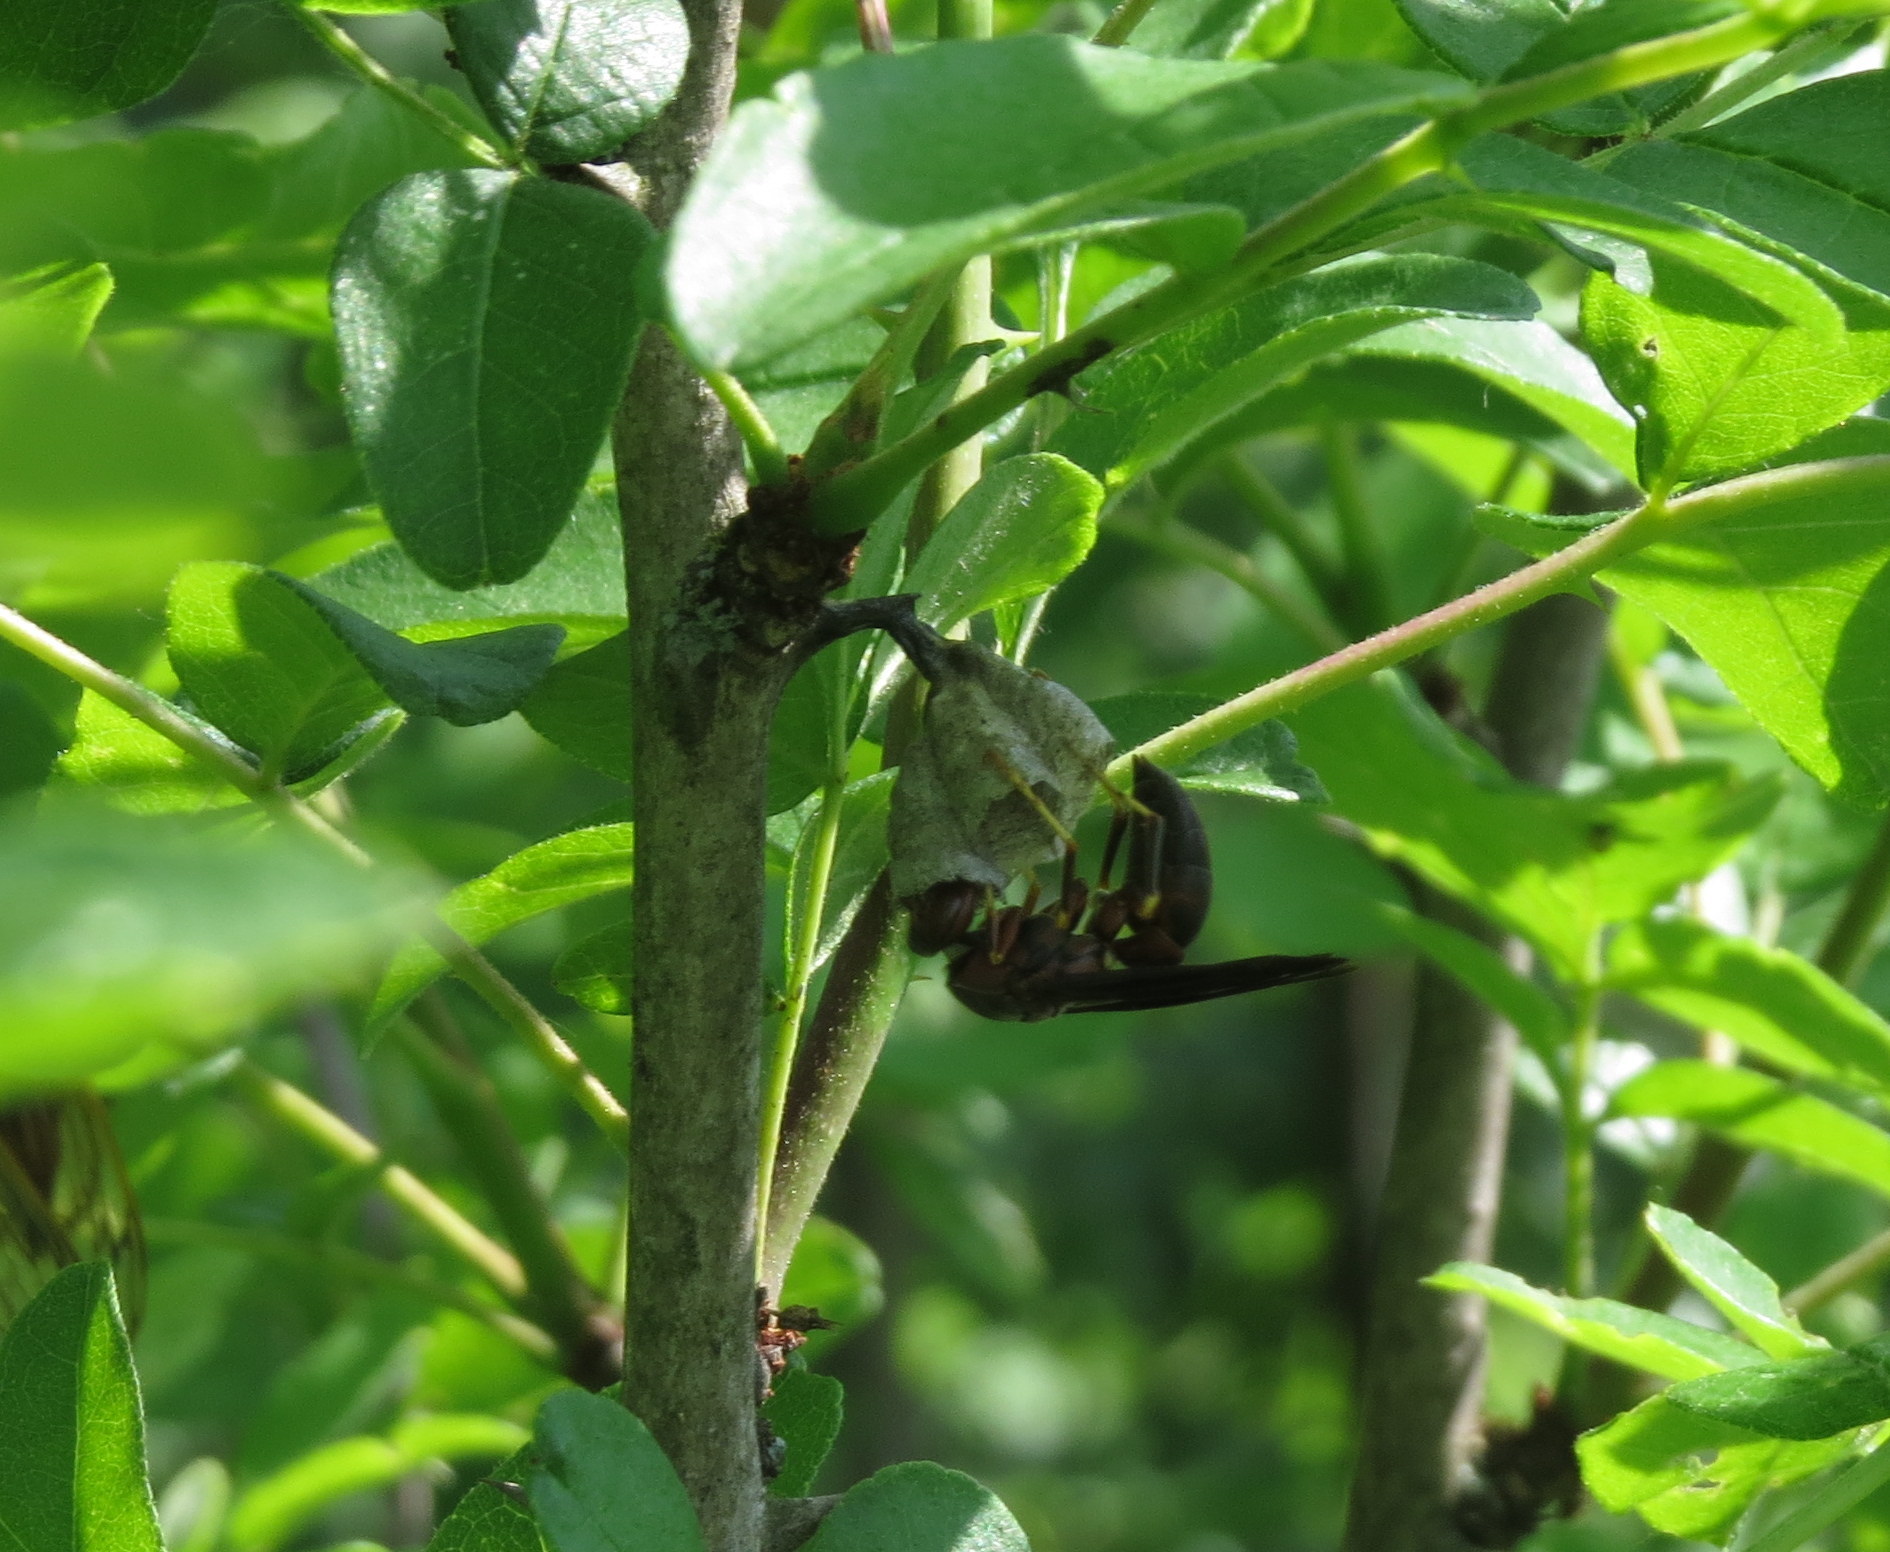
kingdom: Animalia
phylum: Arthropoda
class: Insecta
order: Hymenoptera
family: Eumenidae
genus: Polistes
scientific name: Polistes metricus
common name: Metric paper wasp
